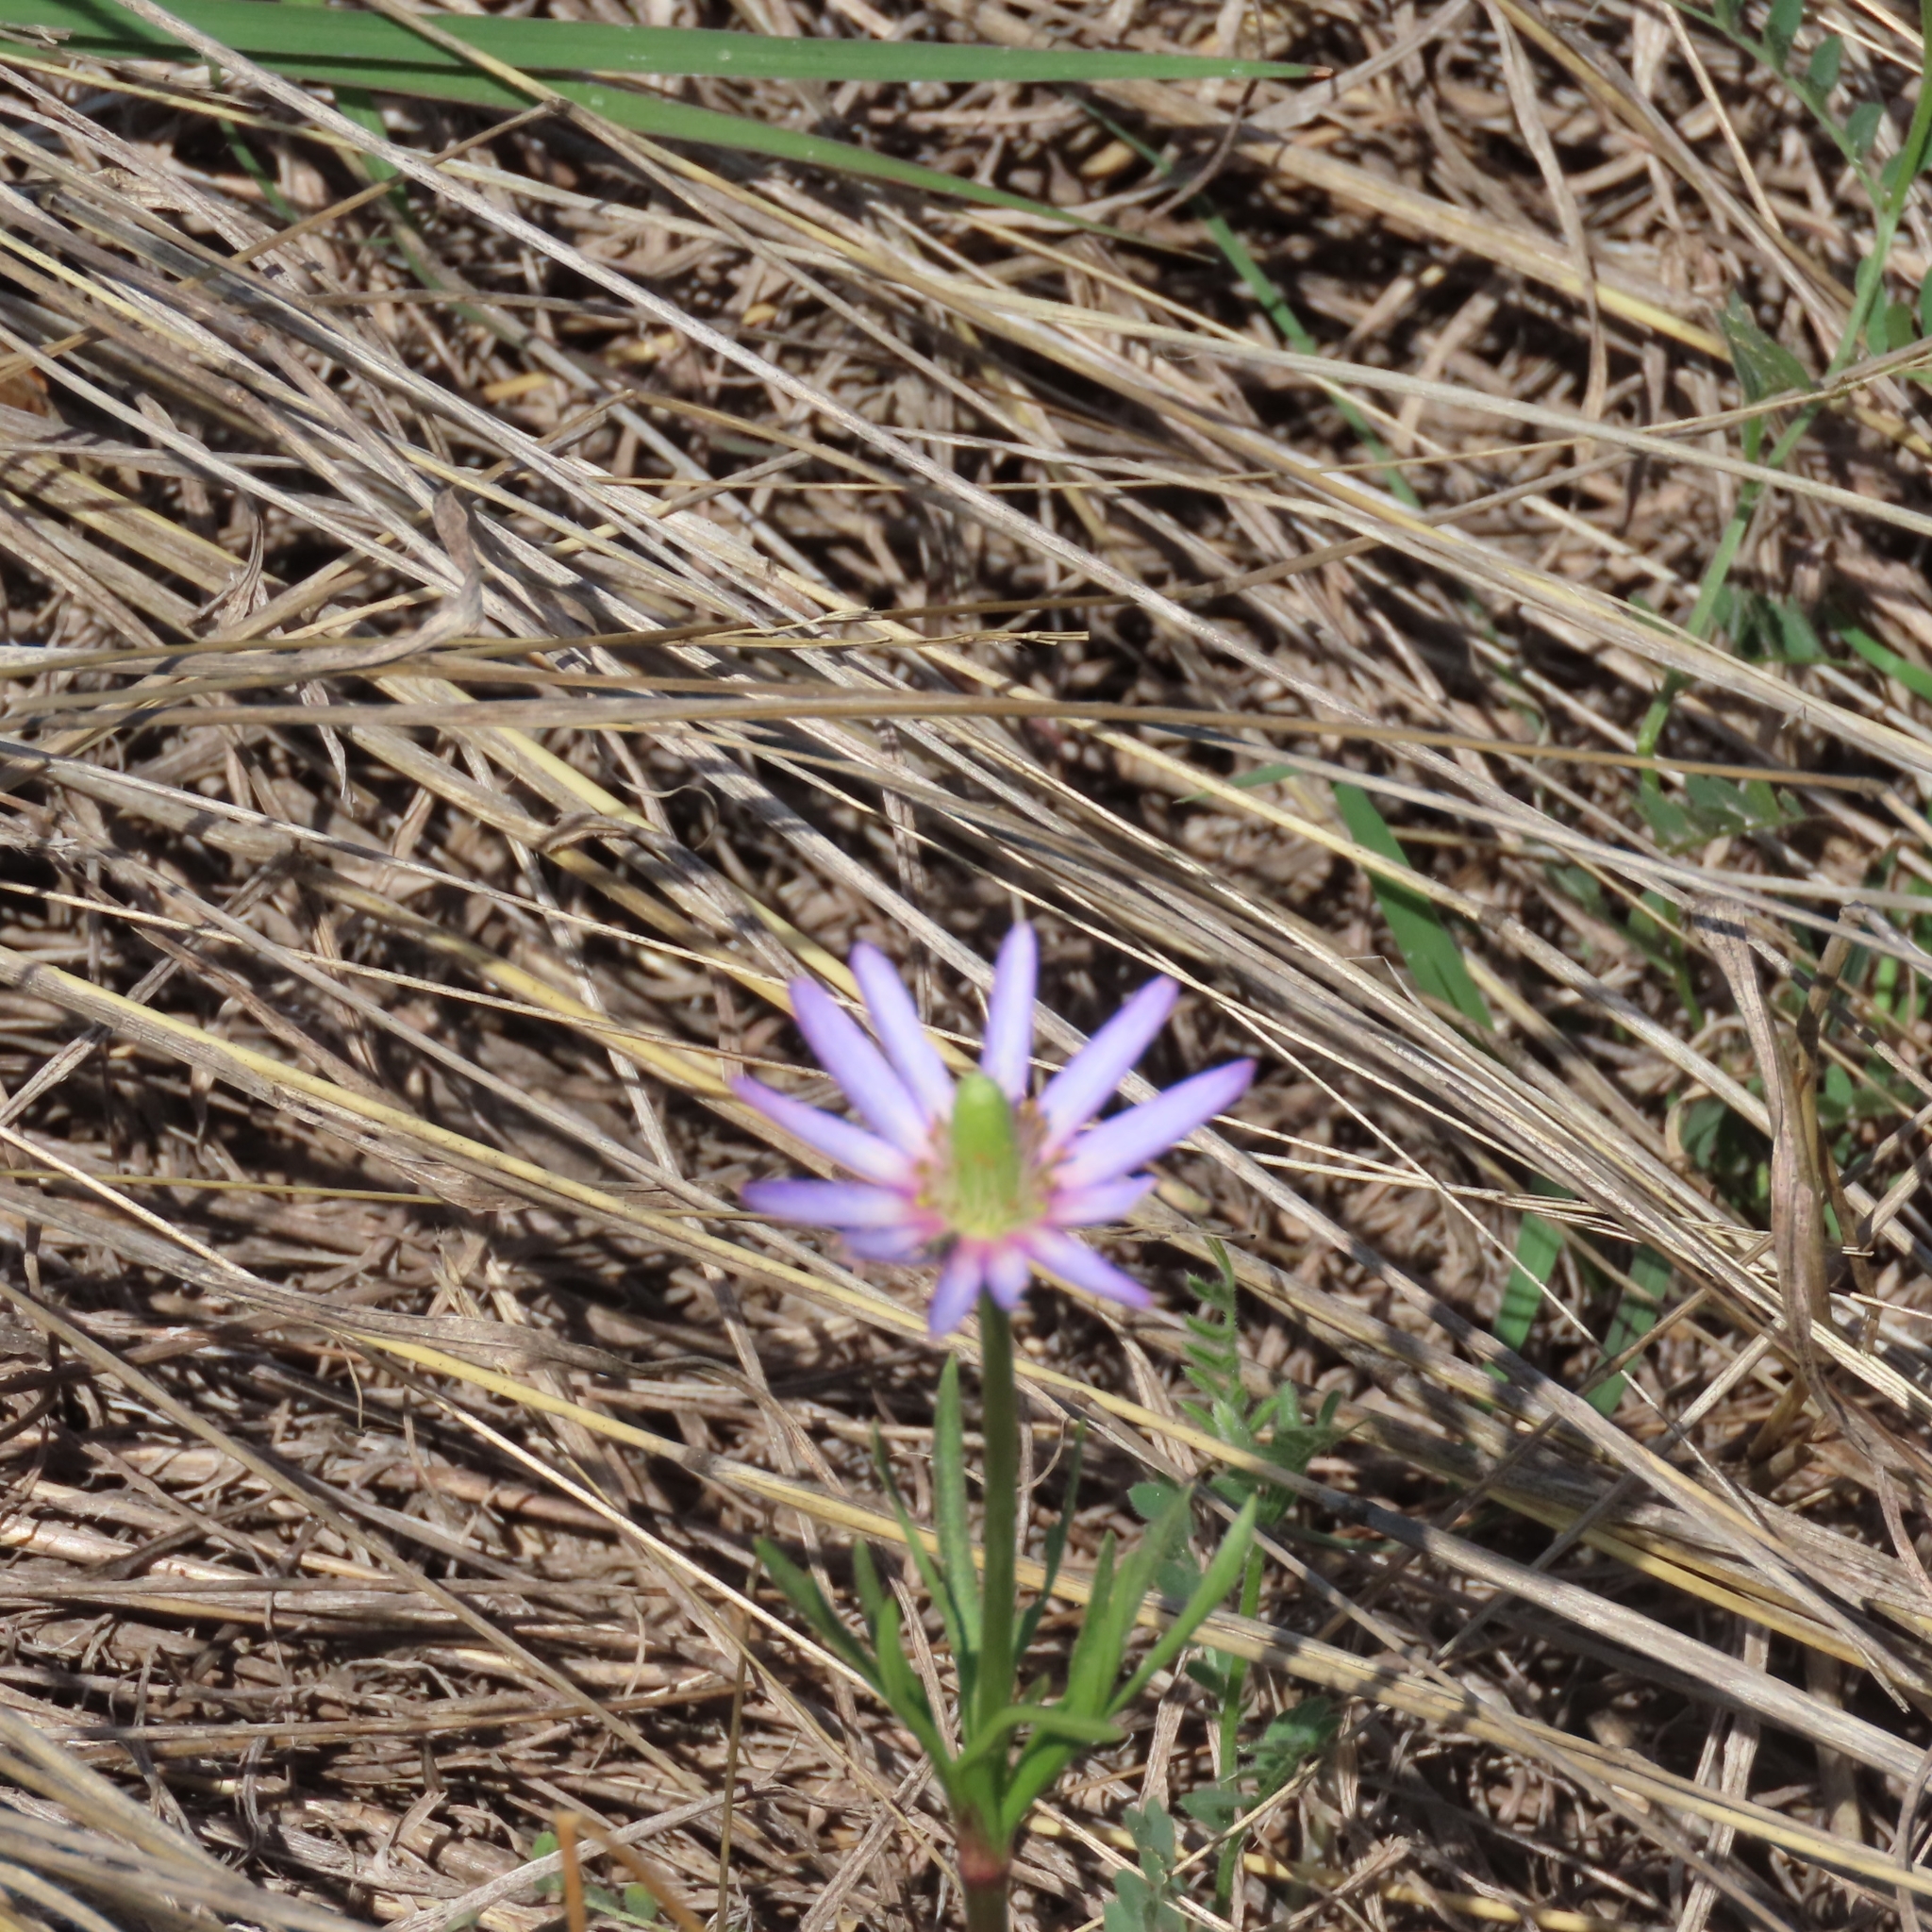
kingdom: Plantae
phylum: Tracheophyta
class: Magnoliopsida
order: Ranunculales
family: Ranunculaceae
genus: Anemone
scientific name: Anemone berlandieri
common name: Ten-petal anemone
